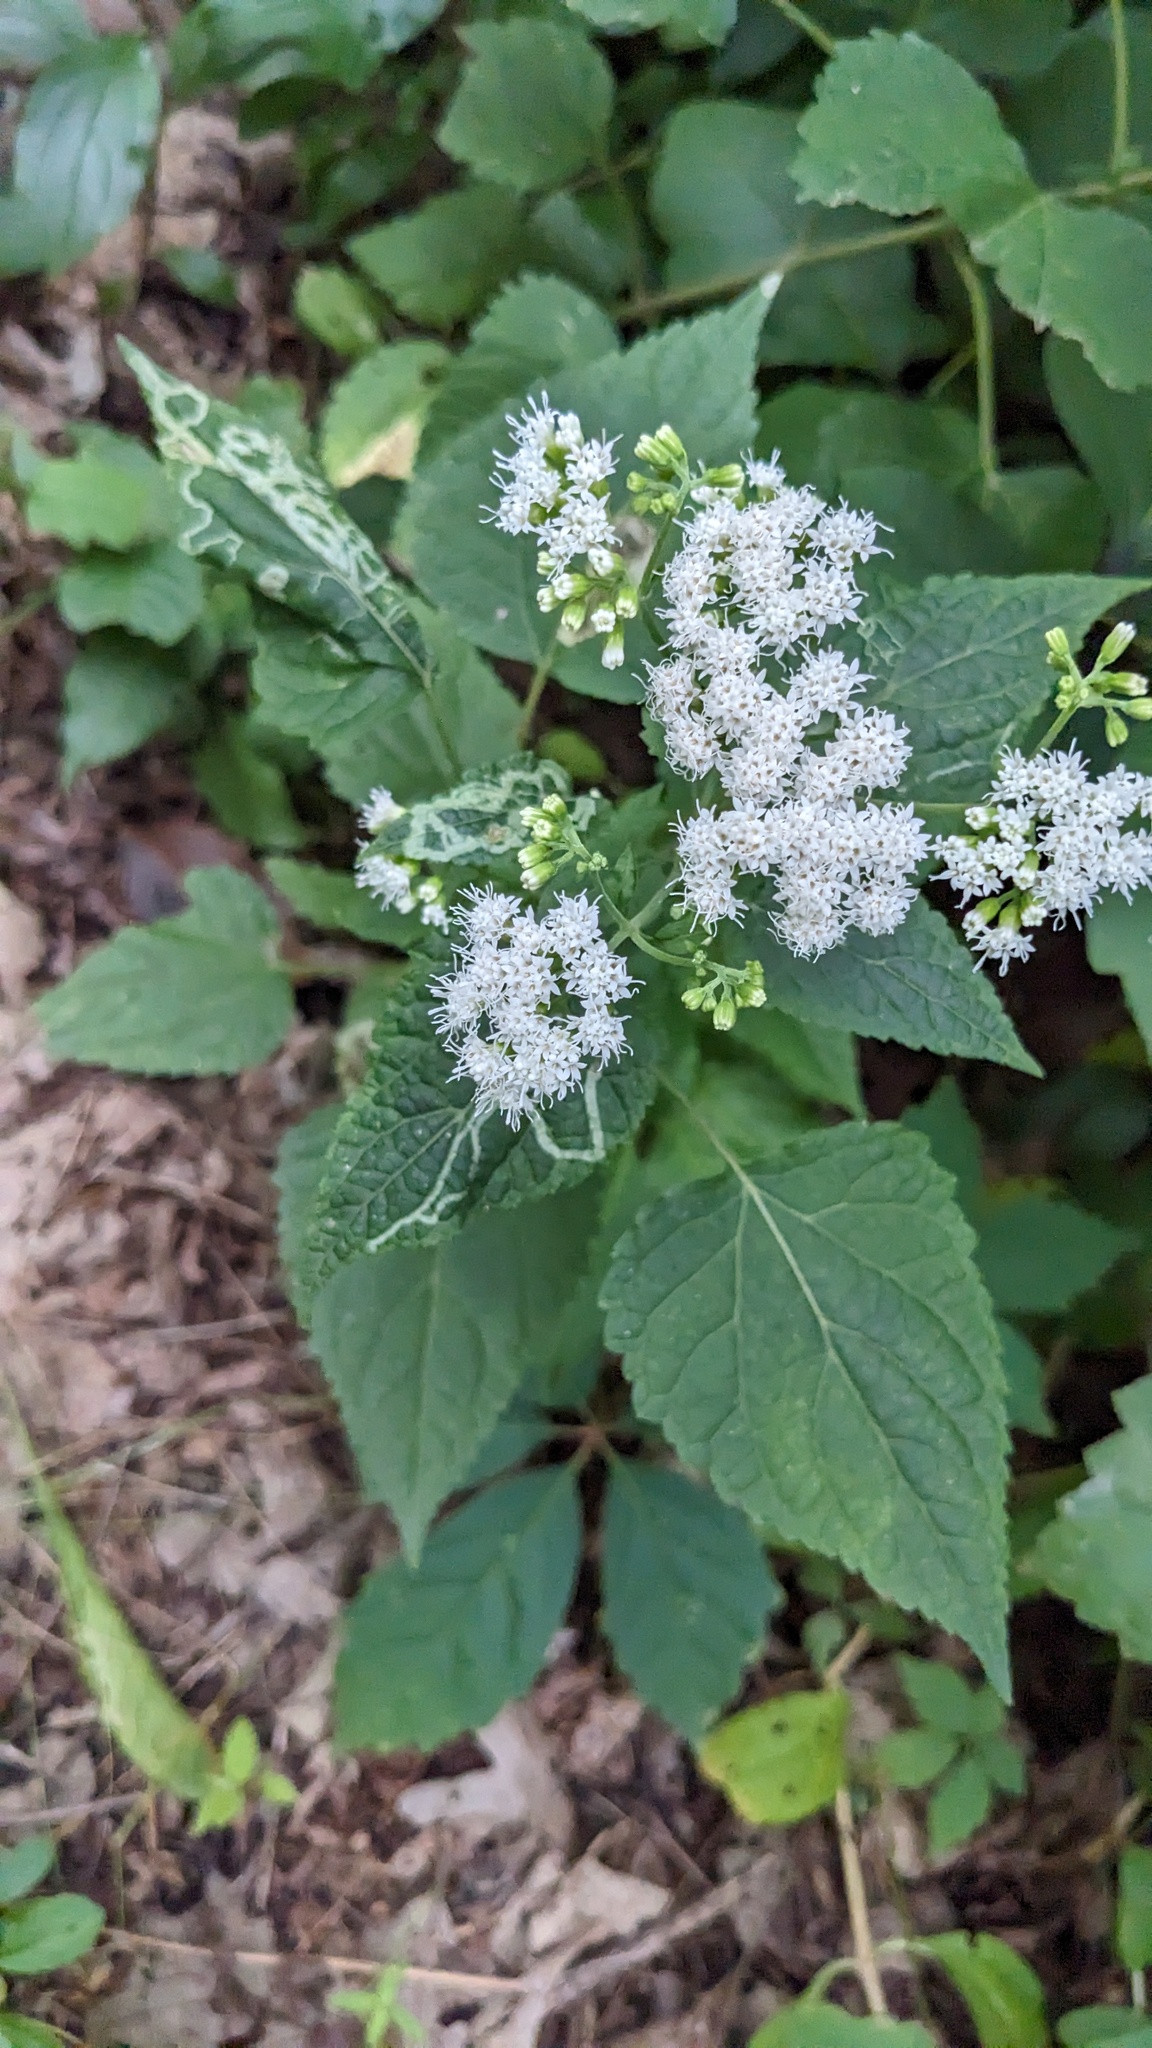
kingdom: Plantae
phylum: Tracheophyta
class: Magnoliopsida
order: Asterales
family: Asteraceae
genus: Ageratina
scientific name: Ageratina altissima
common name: White snakeroot
